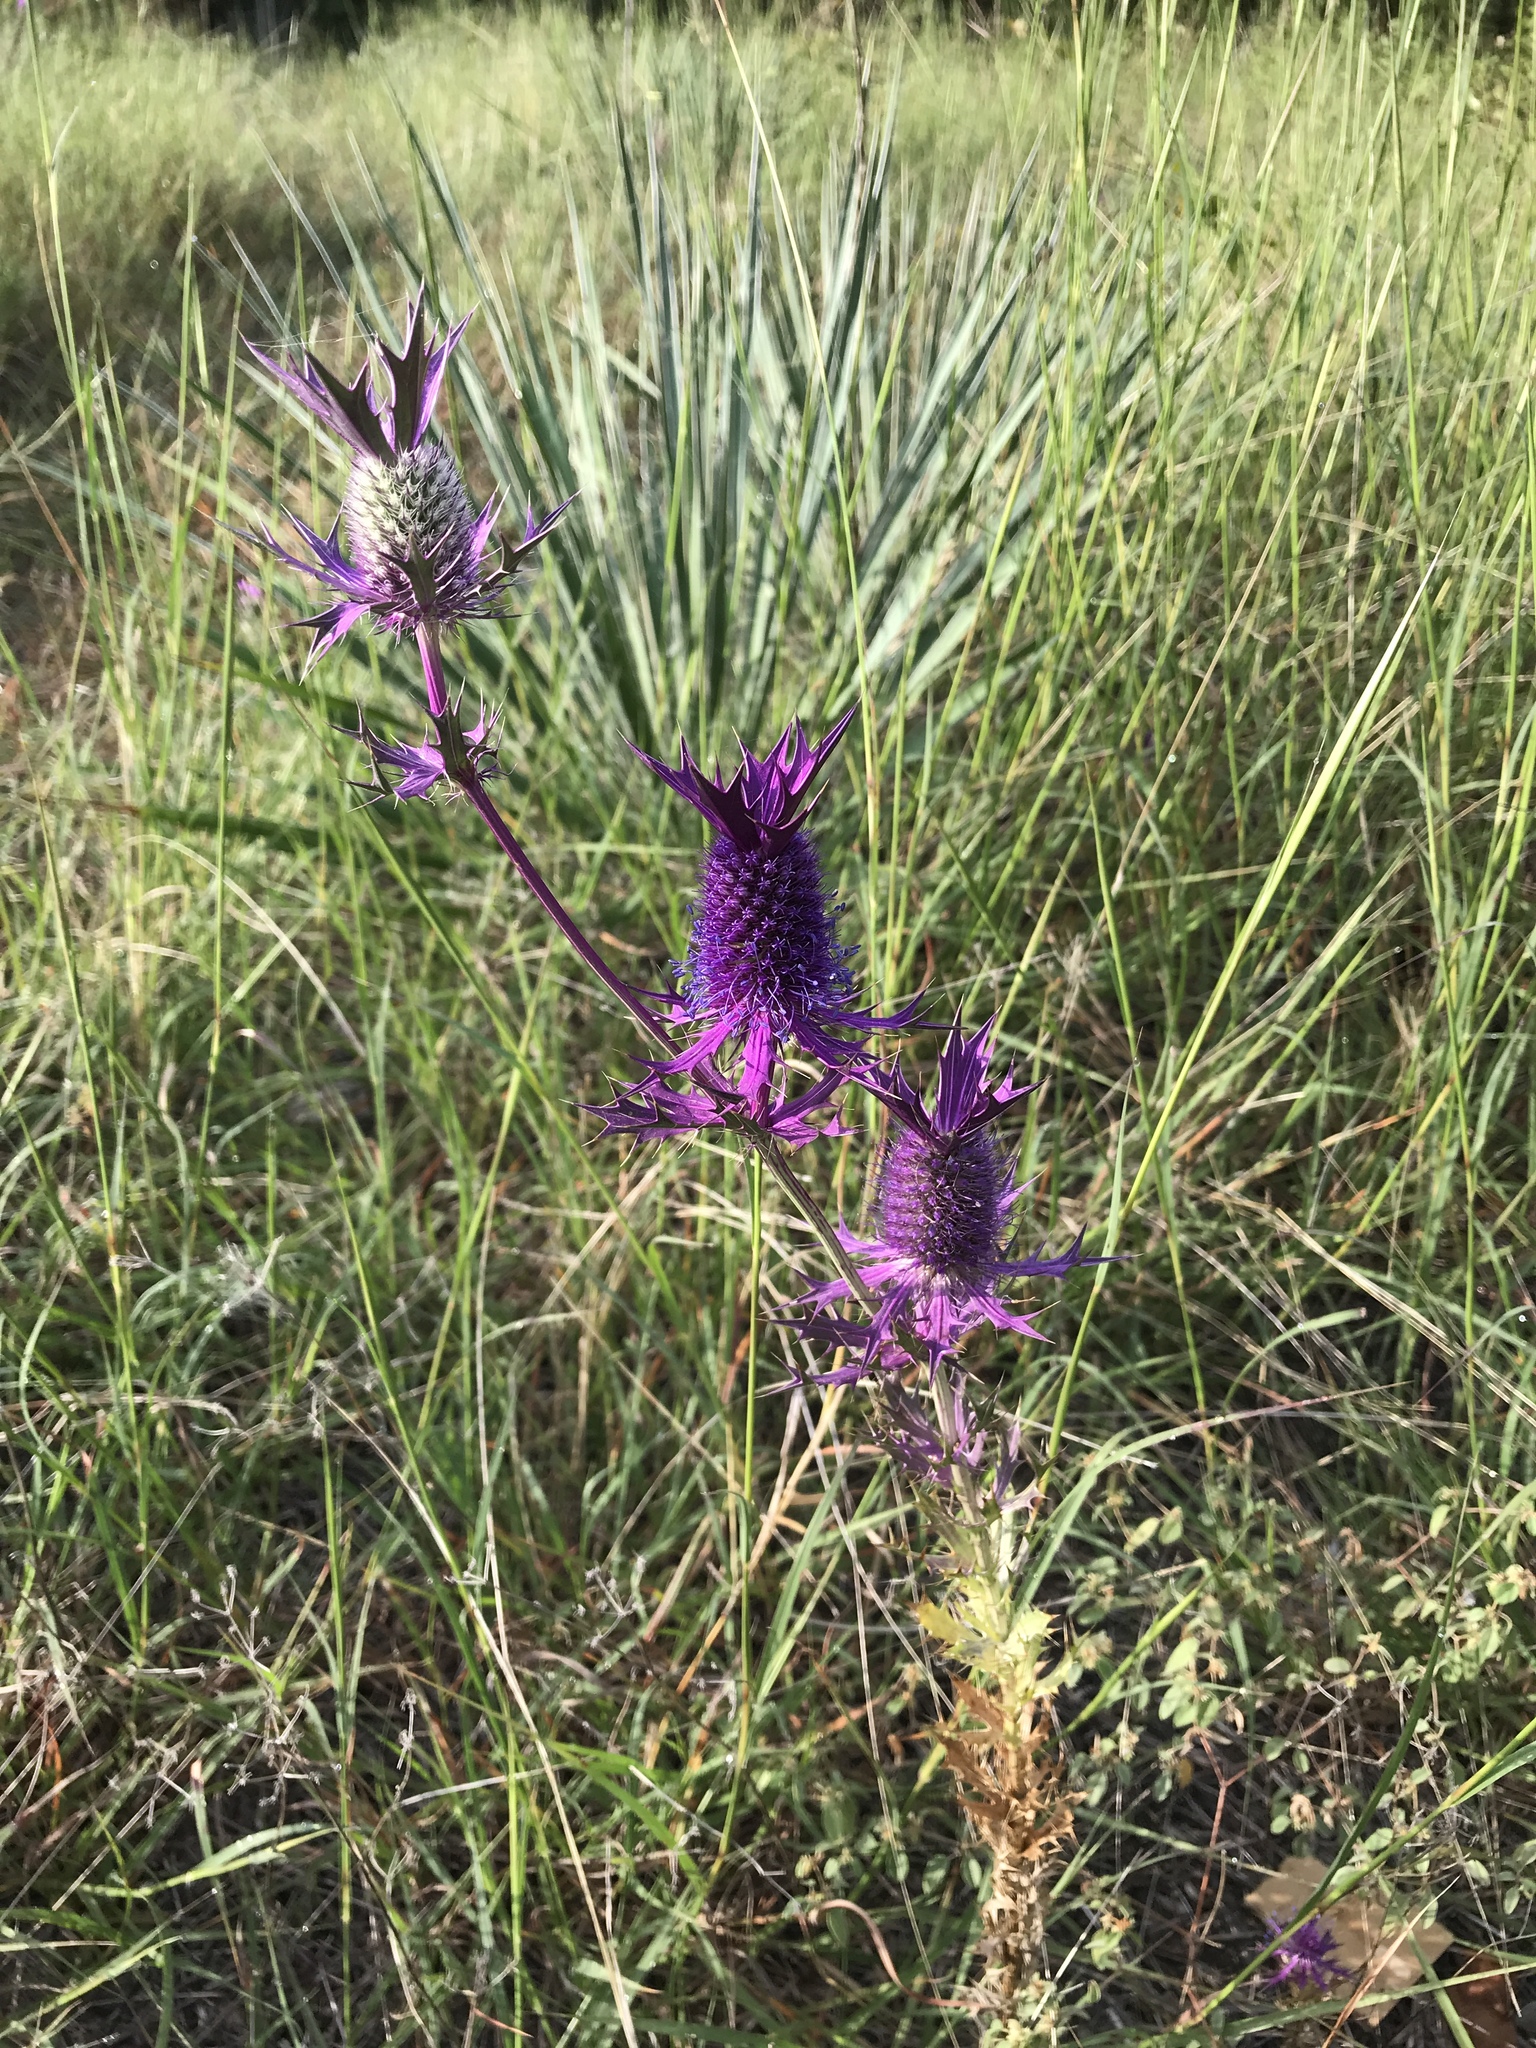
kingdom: Plantae
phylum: Tracheophyta
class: Magnoliopsida
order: Apiales
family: Apiaceae
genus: Eryngium
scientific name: Eryngium leavenworthii
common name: Leavenworth's eryngo
